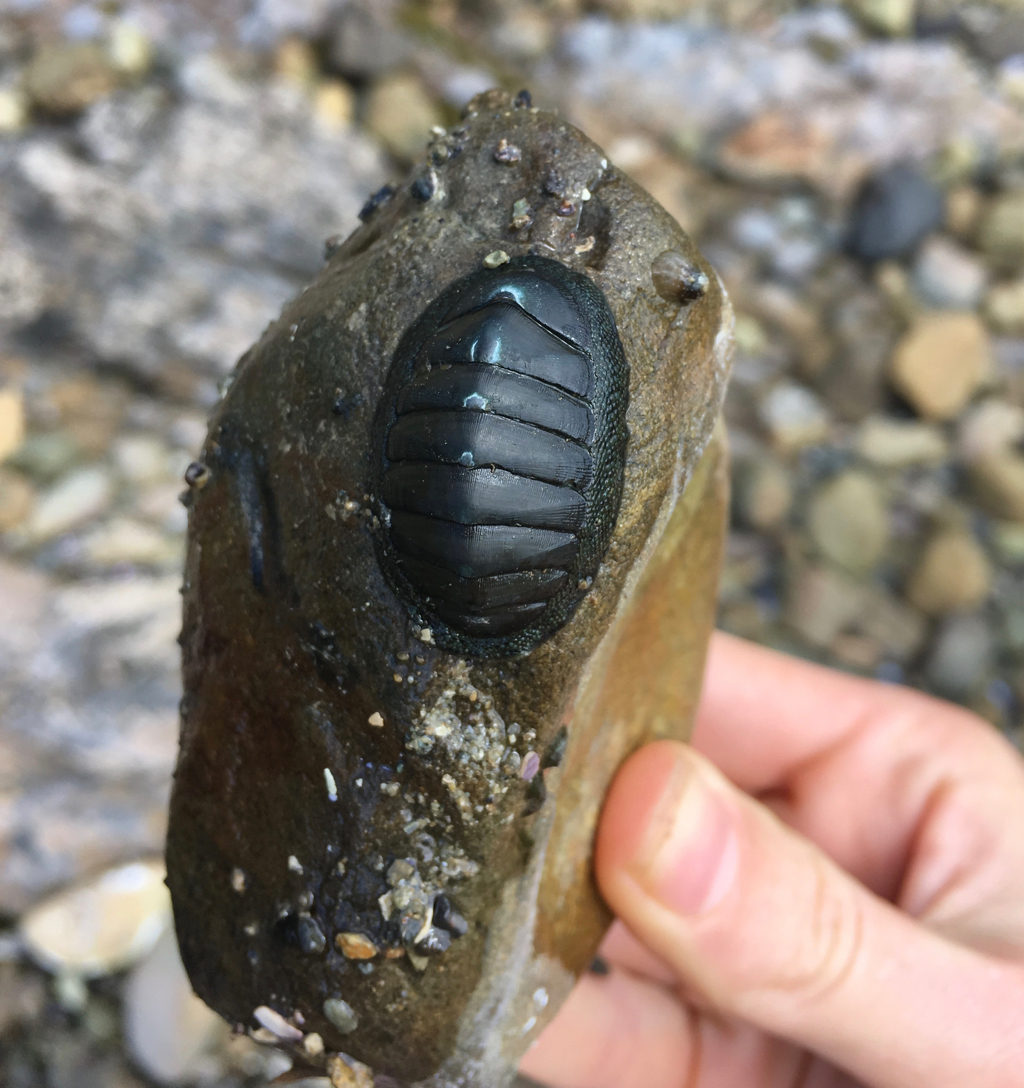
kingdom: Animalia
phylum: Mollusca
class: Polyplacophora
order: Chitonida
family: Chitonidae
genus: Chiton
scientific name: Chiton glaucus
